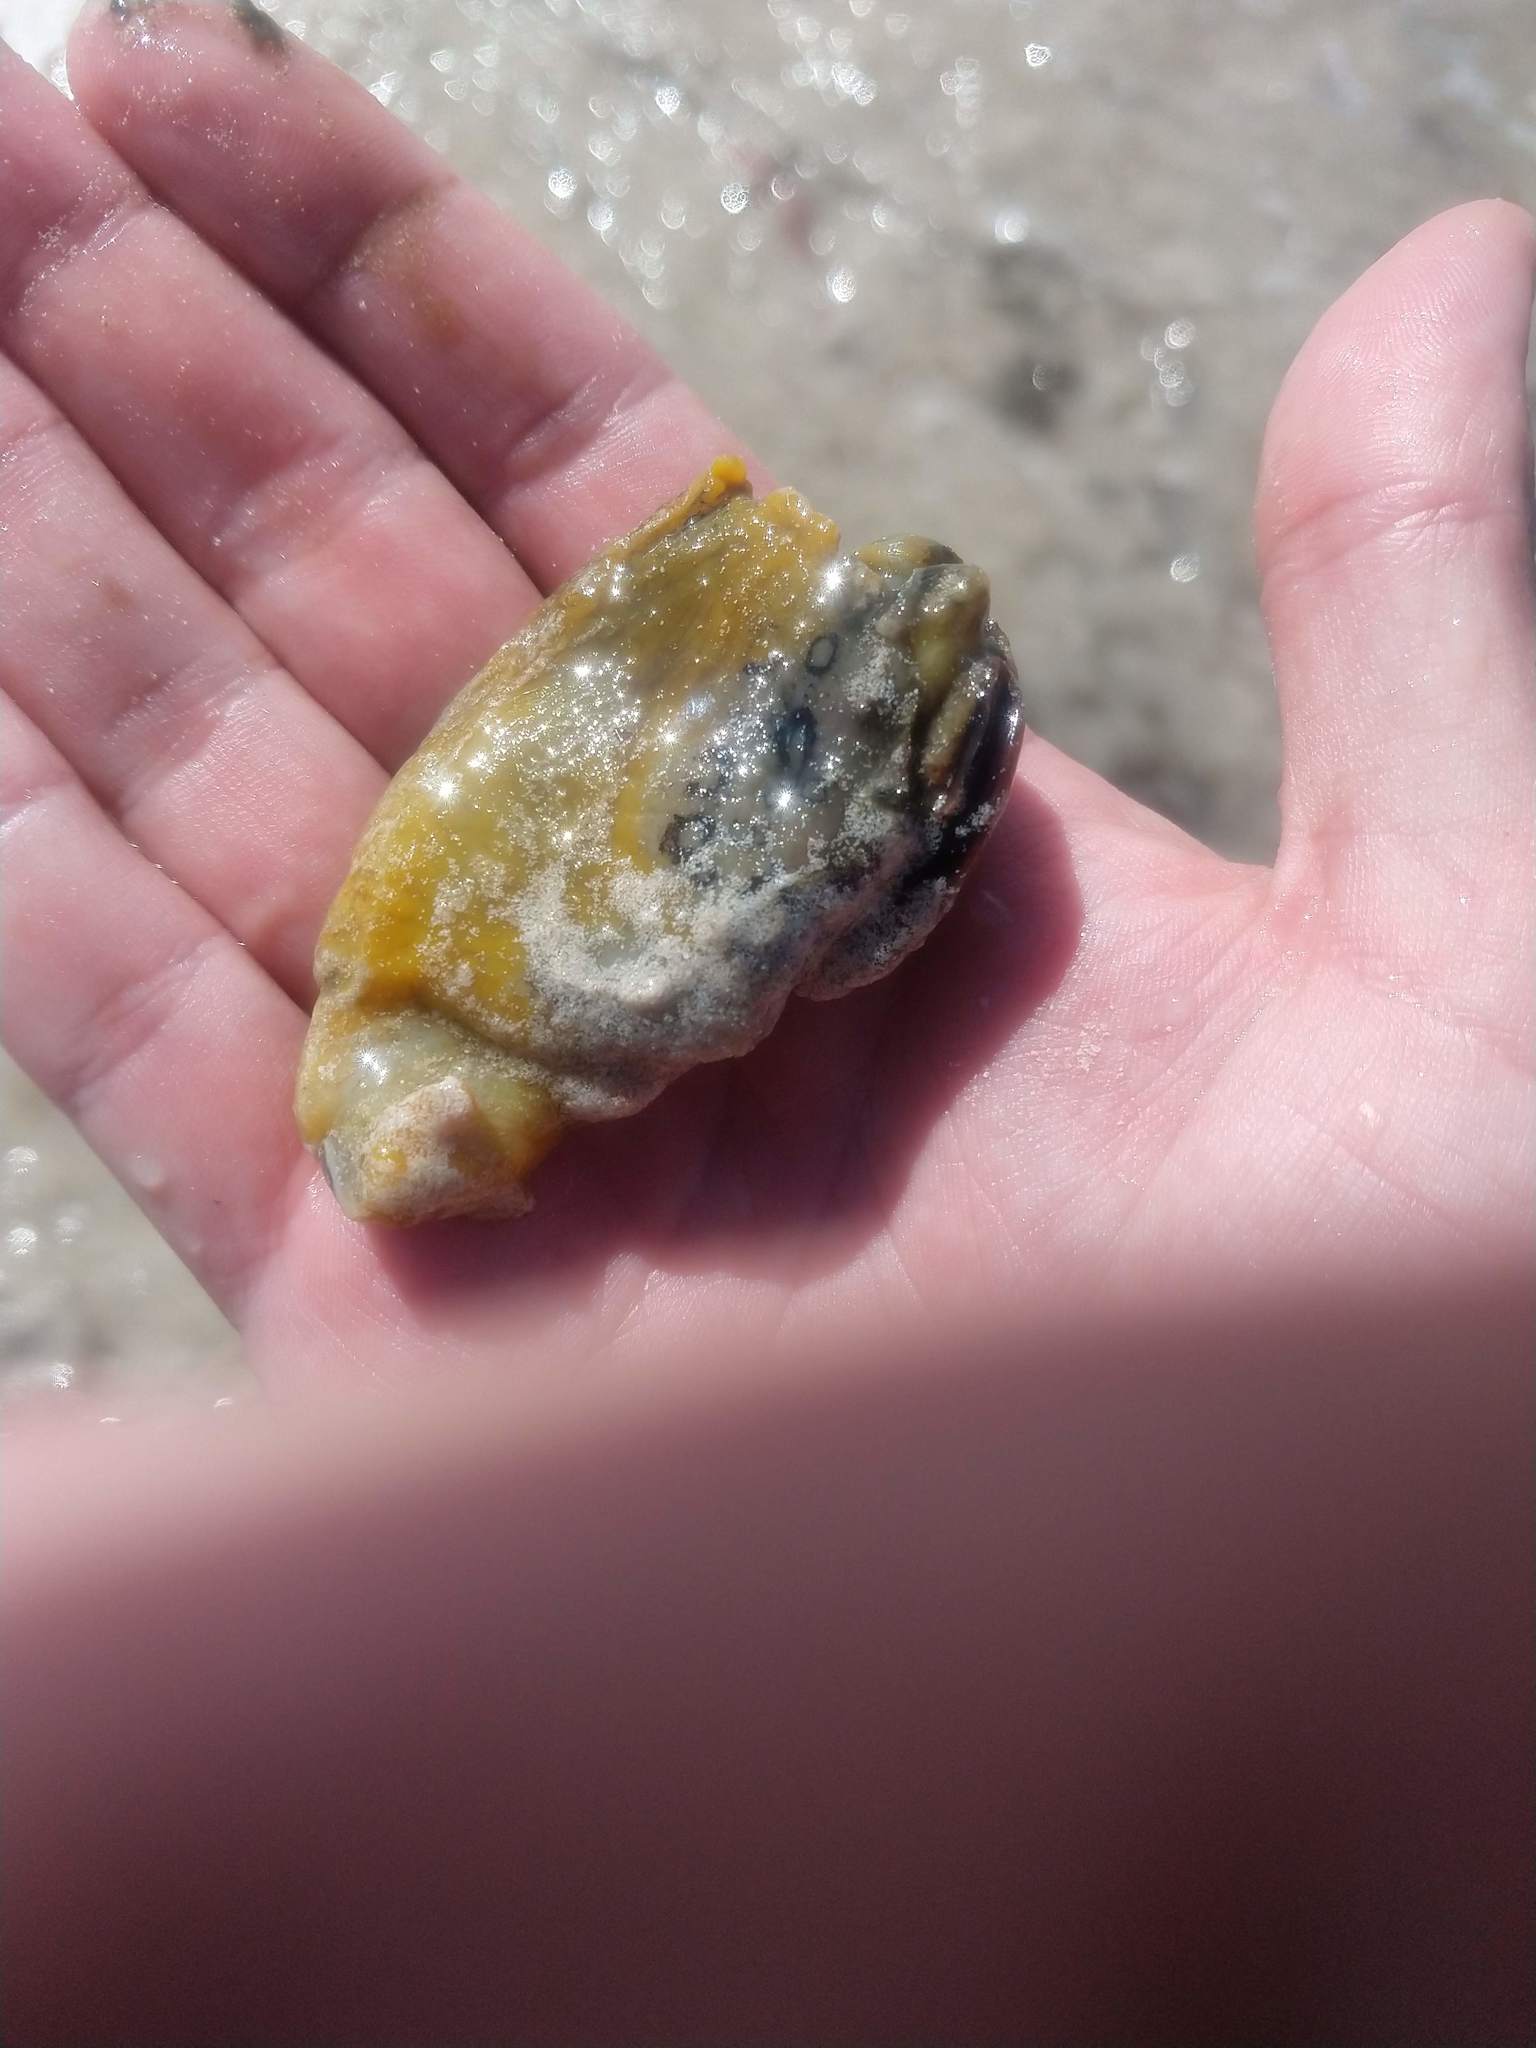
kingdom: Animalia
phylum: Mollusca
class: Gastropoda
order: Aplysiida
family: Aplysiidae
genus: Aplysia
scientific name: Aplysia dactylomela
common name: Large-spotted sea hare
